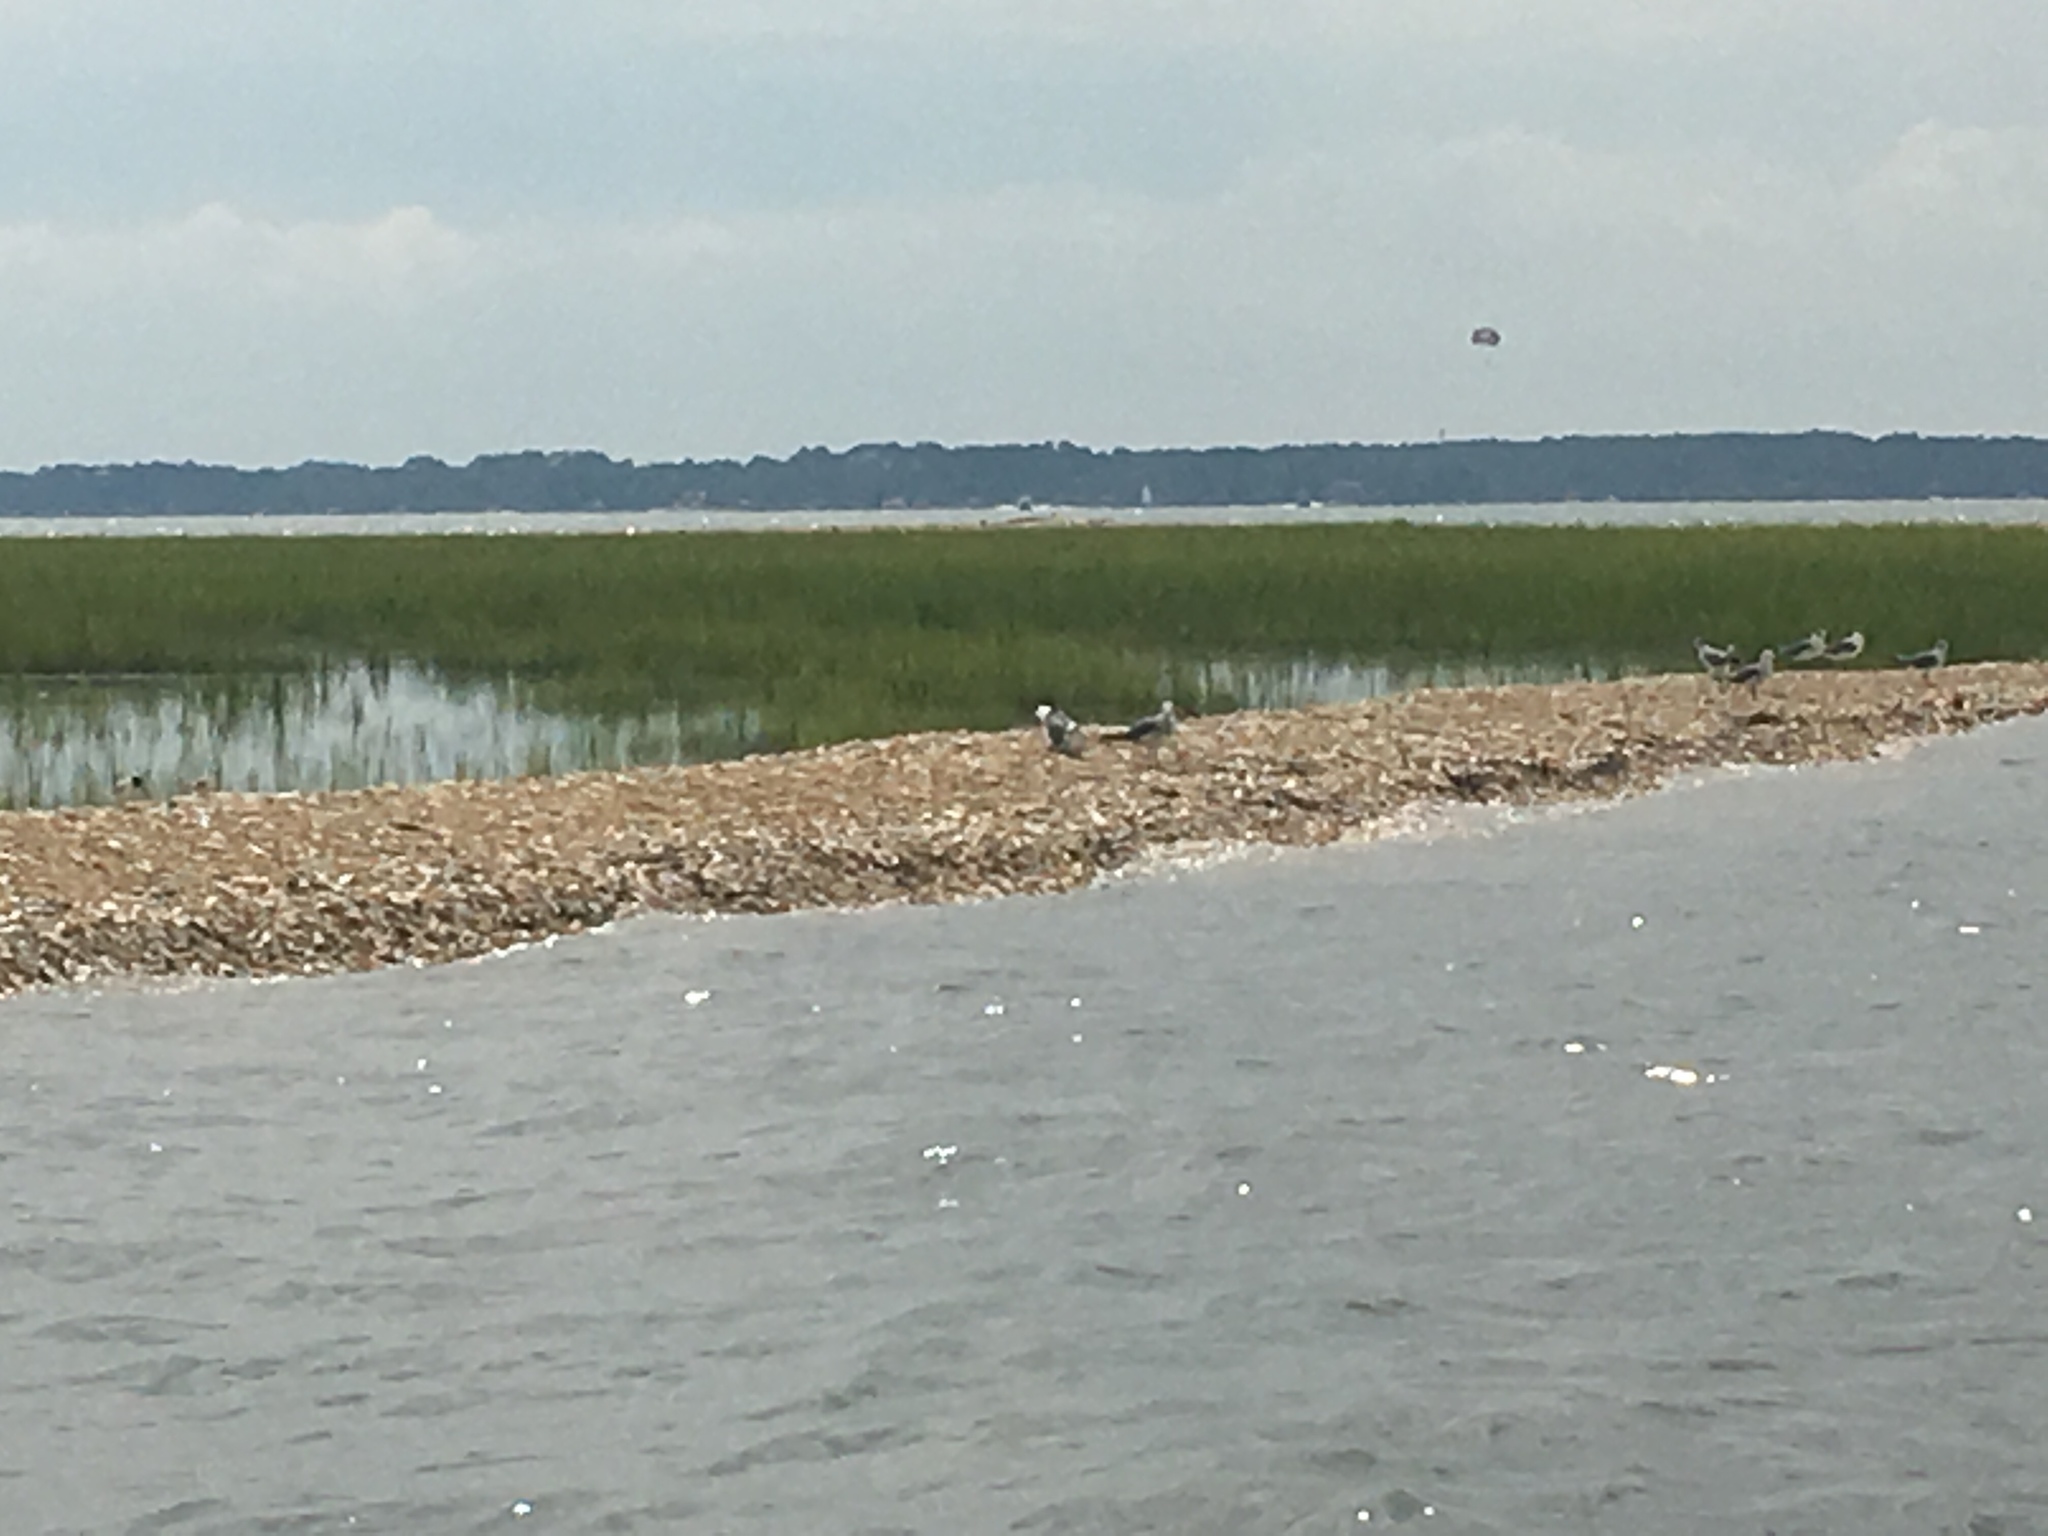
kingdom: Animalia
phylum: Chordata
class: Aves
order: Charadriiformes
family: Laridae
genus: Leucophaeus
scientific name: Leucophaeus atricilla
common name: Laughing gull
